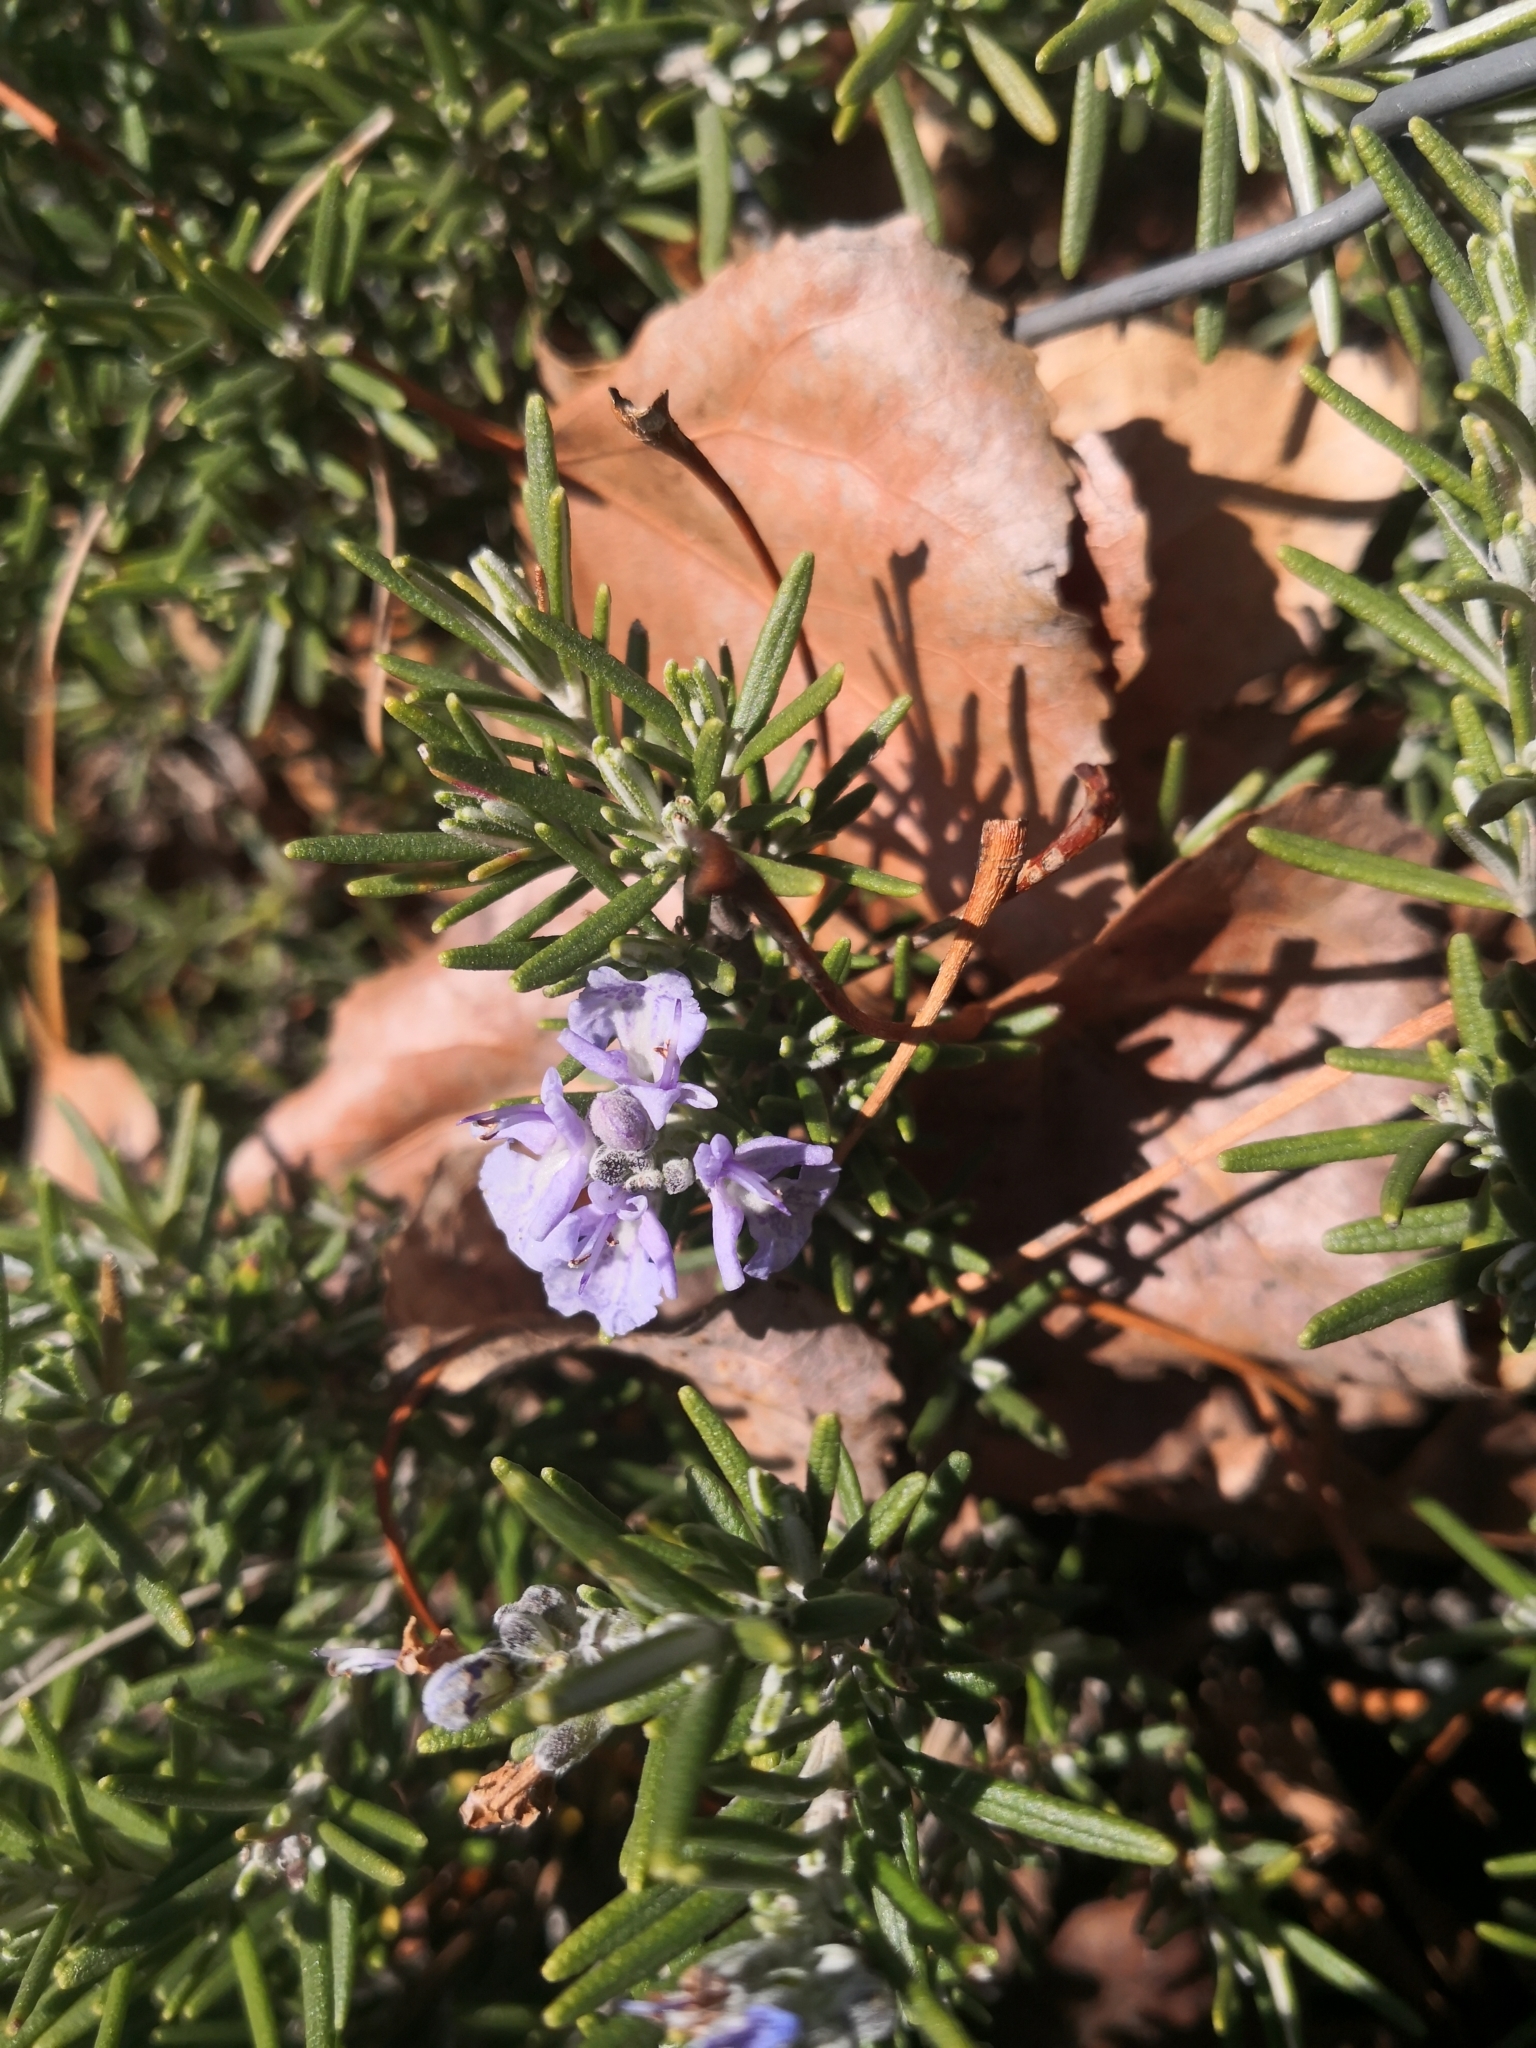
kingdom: Plantae
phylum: Tracheophyta
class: Magnoliopsida
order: Lamiales
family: Lamiaceae
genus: Salvia
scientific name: Salvia rosmarinus
